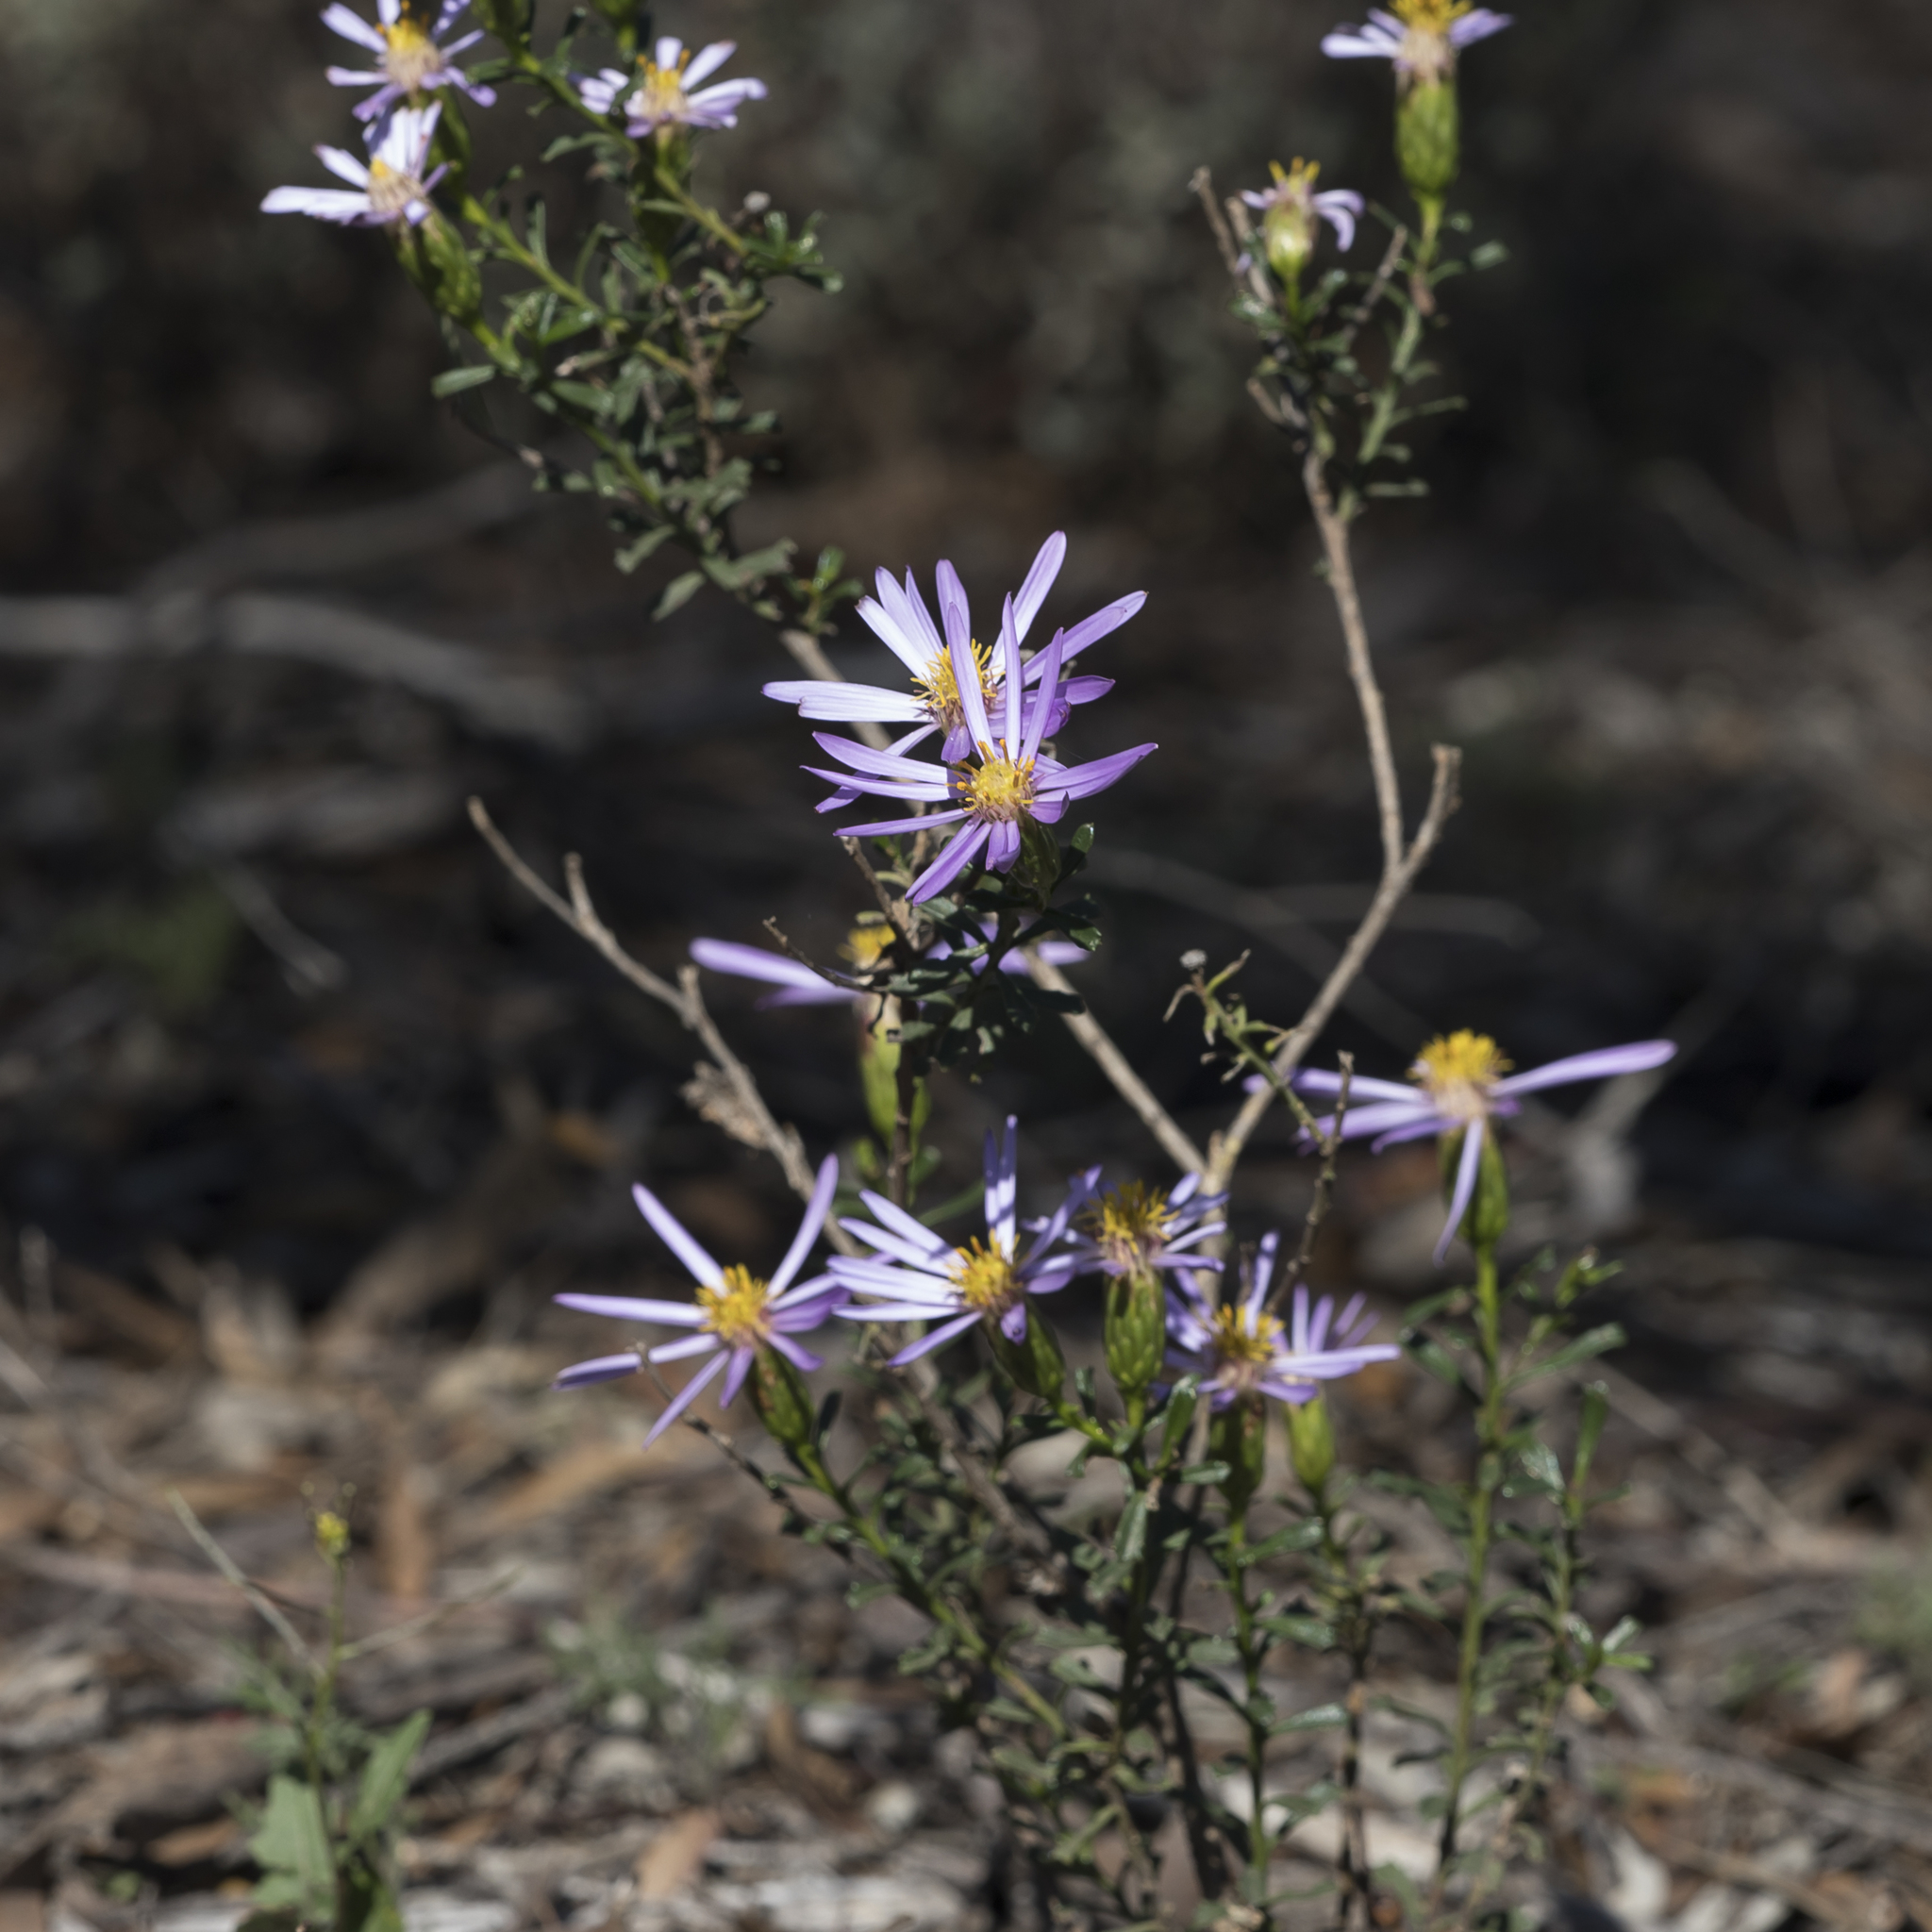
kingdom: Plantae
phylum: Tracheophyta
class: Magnoliopsida
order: Asterales
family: Asteraceae
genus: Walsholaria
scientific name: Walsholaria magniflora
